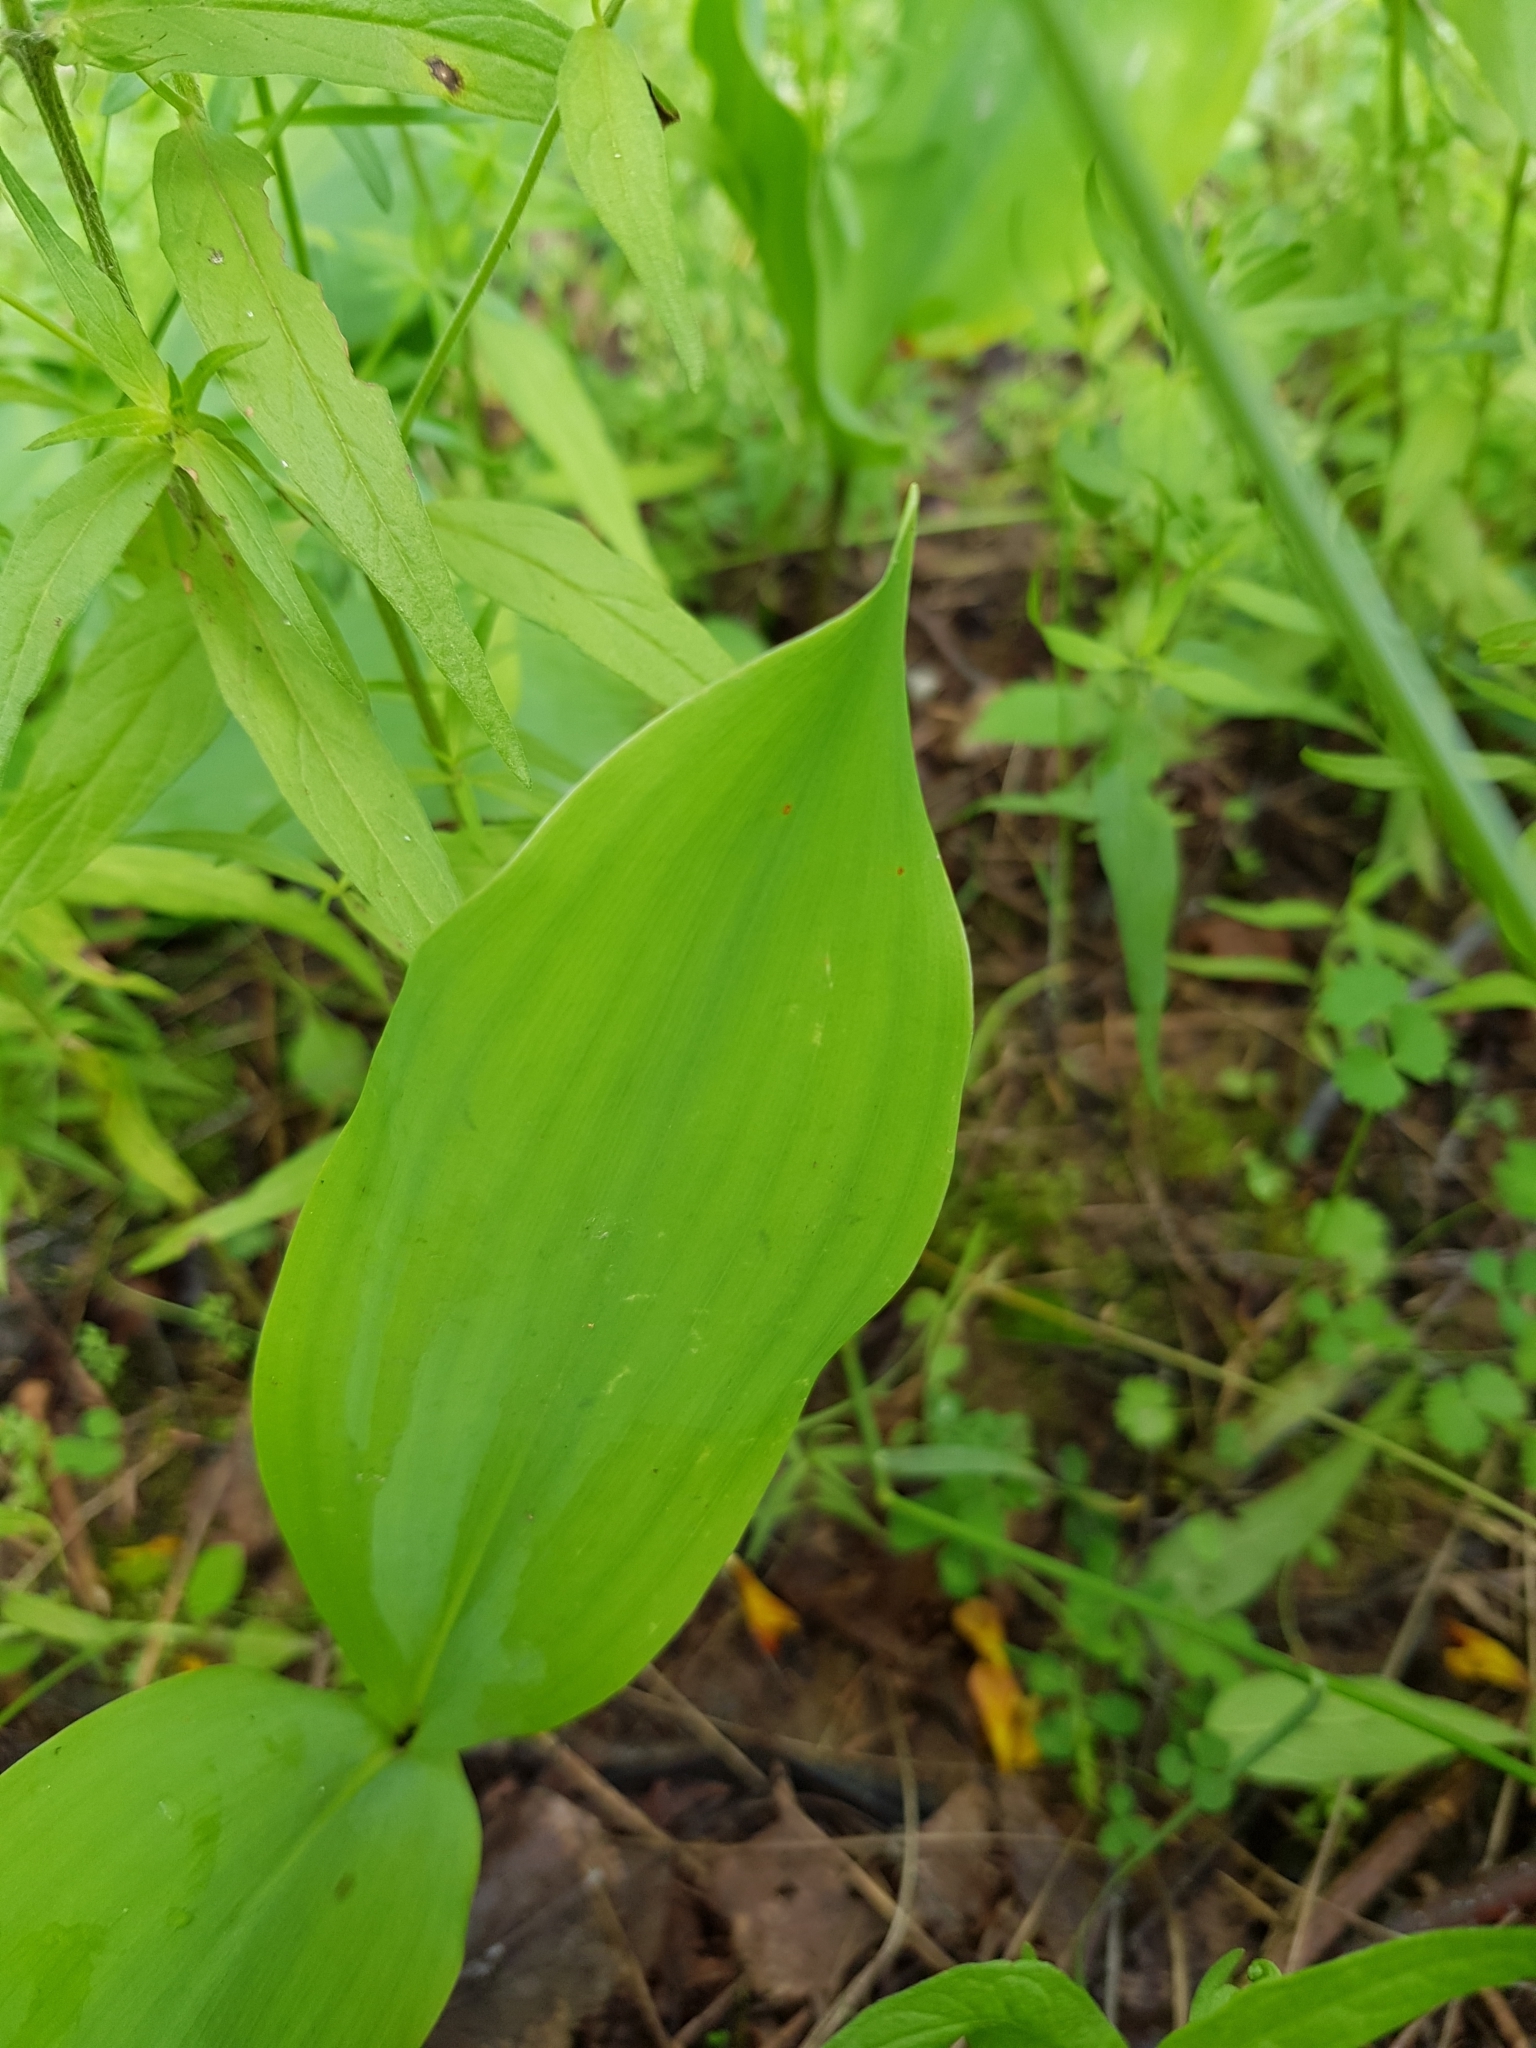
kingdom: Plantae
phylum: Tracheophyta
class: Liliopsida
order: Asparagales
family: Asparagaceae
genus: Convallaria
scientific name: Convallaria majalis
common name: Lily-of-the-valley
